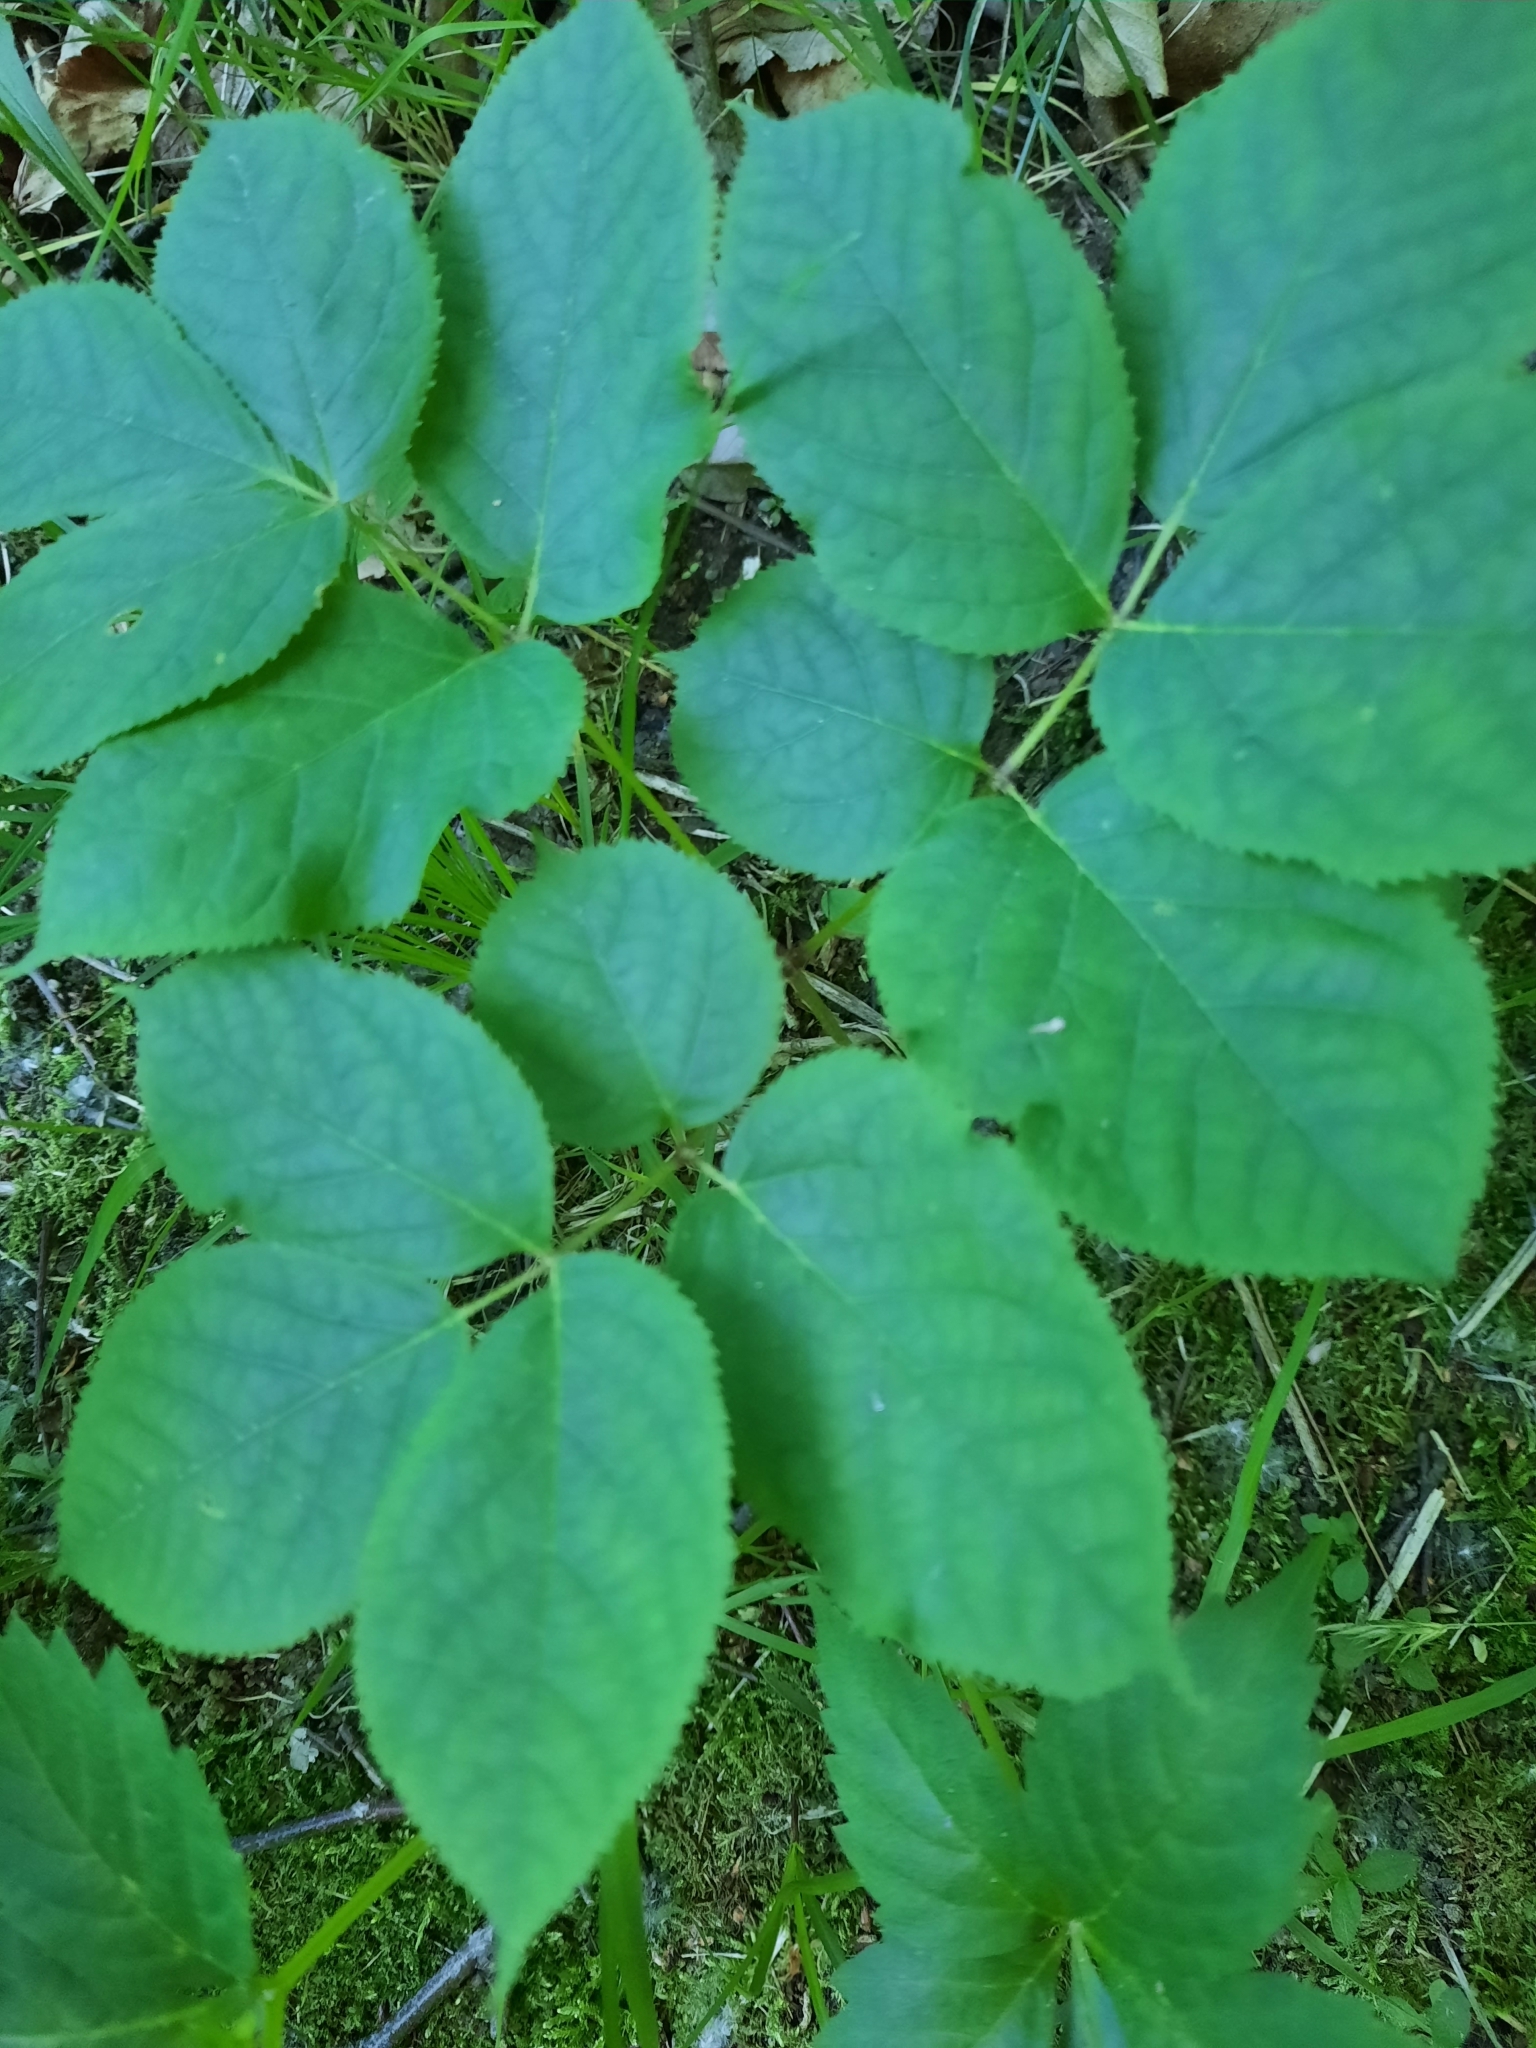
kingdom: Plantae
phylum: Tracheophyta
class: Magnoliopsida
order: Apiales
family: Araliaceae
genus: Aralia
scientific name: Aralia nudicaulis
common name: Wild sarsaparilla
